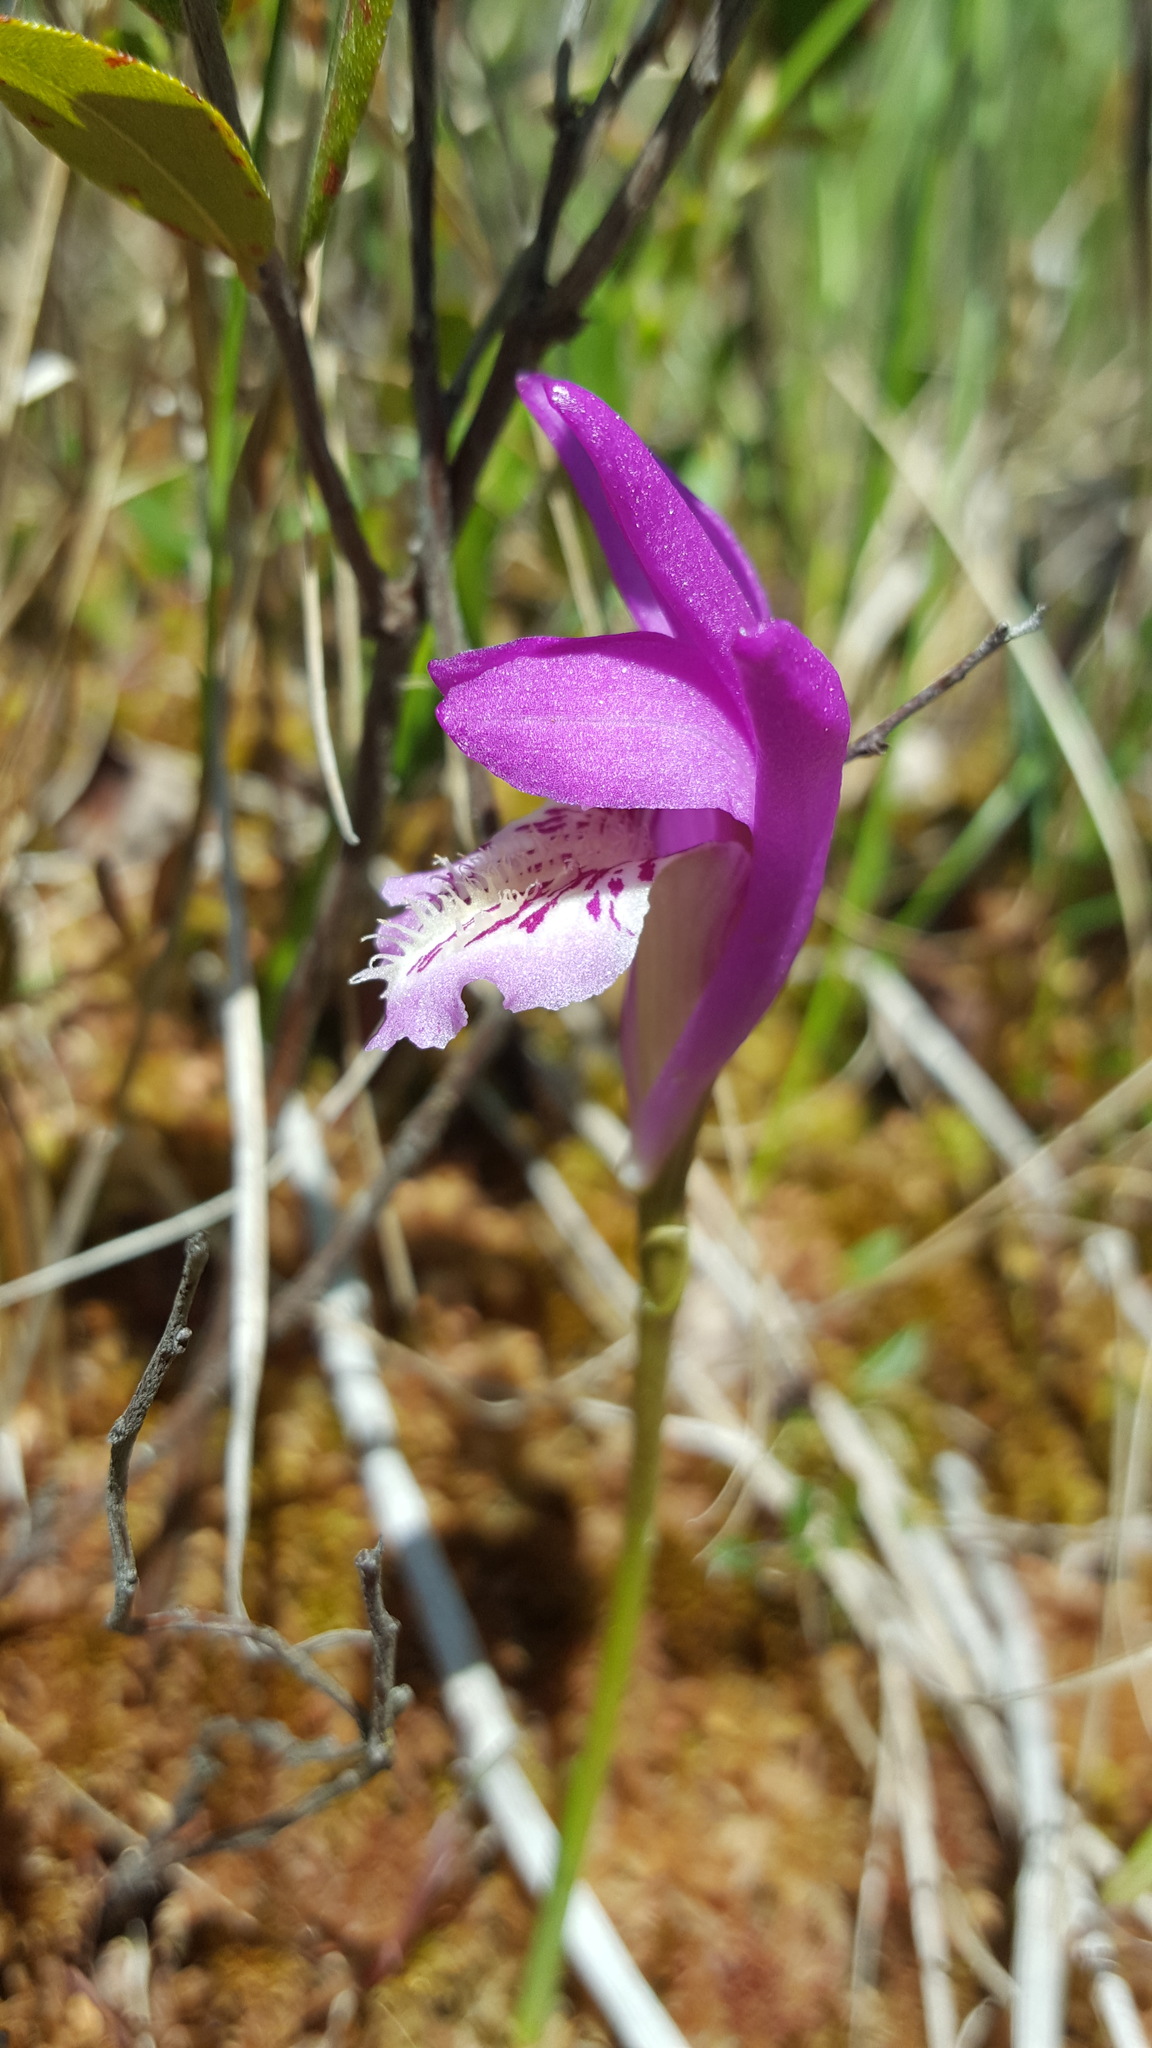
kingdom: Plantae
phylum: Tracheophyta
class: Liliopsida
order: Asparagales
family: Orchidaceae
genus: Arethusa
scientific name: Arethusa bulbosa
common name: Arethusa
